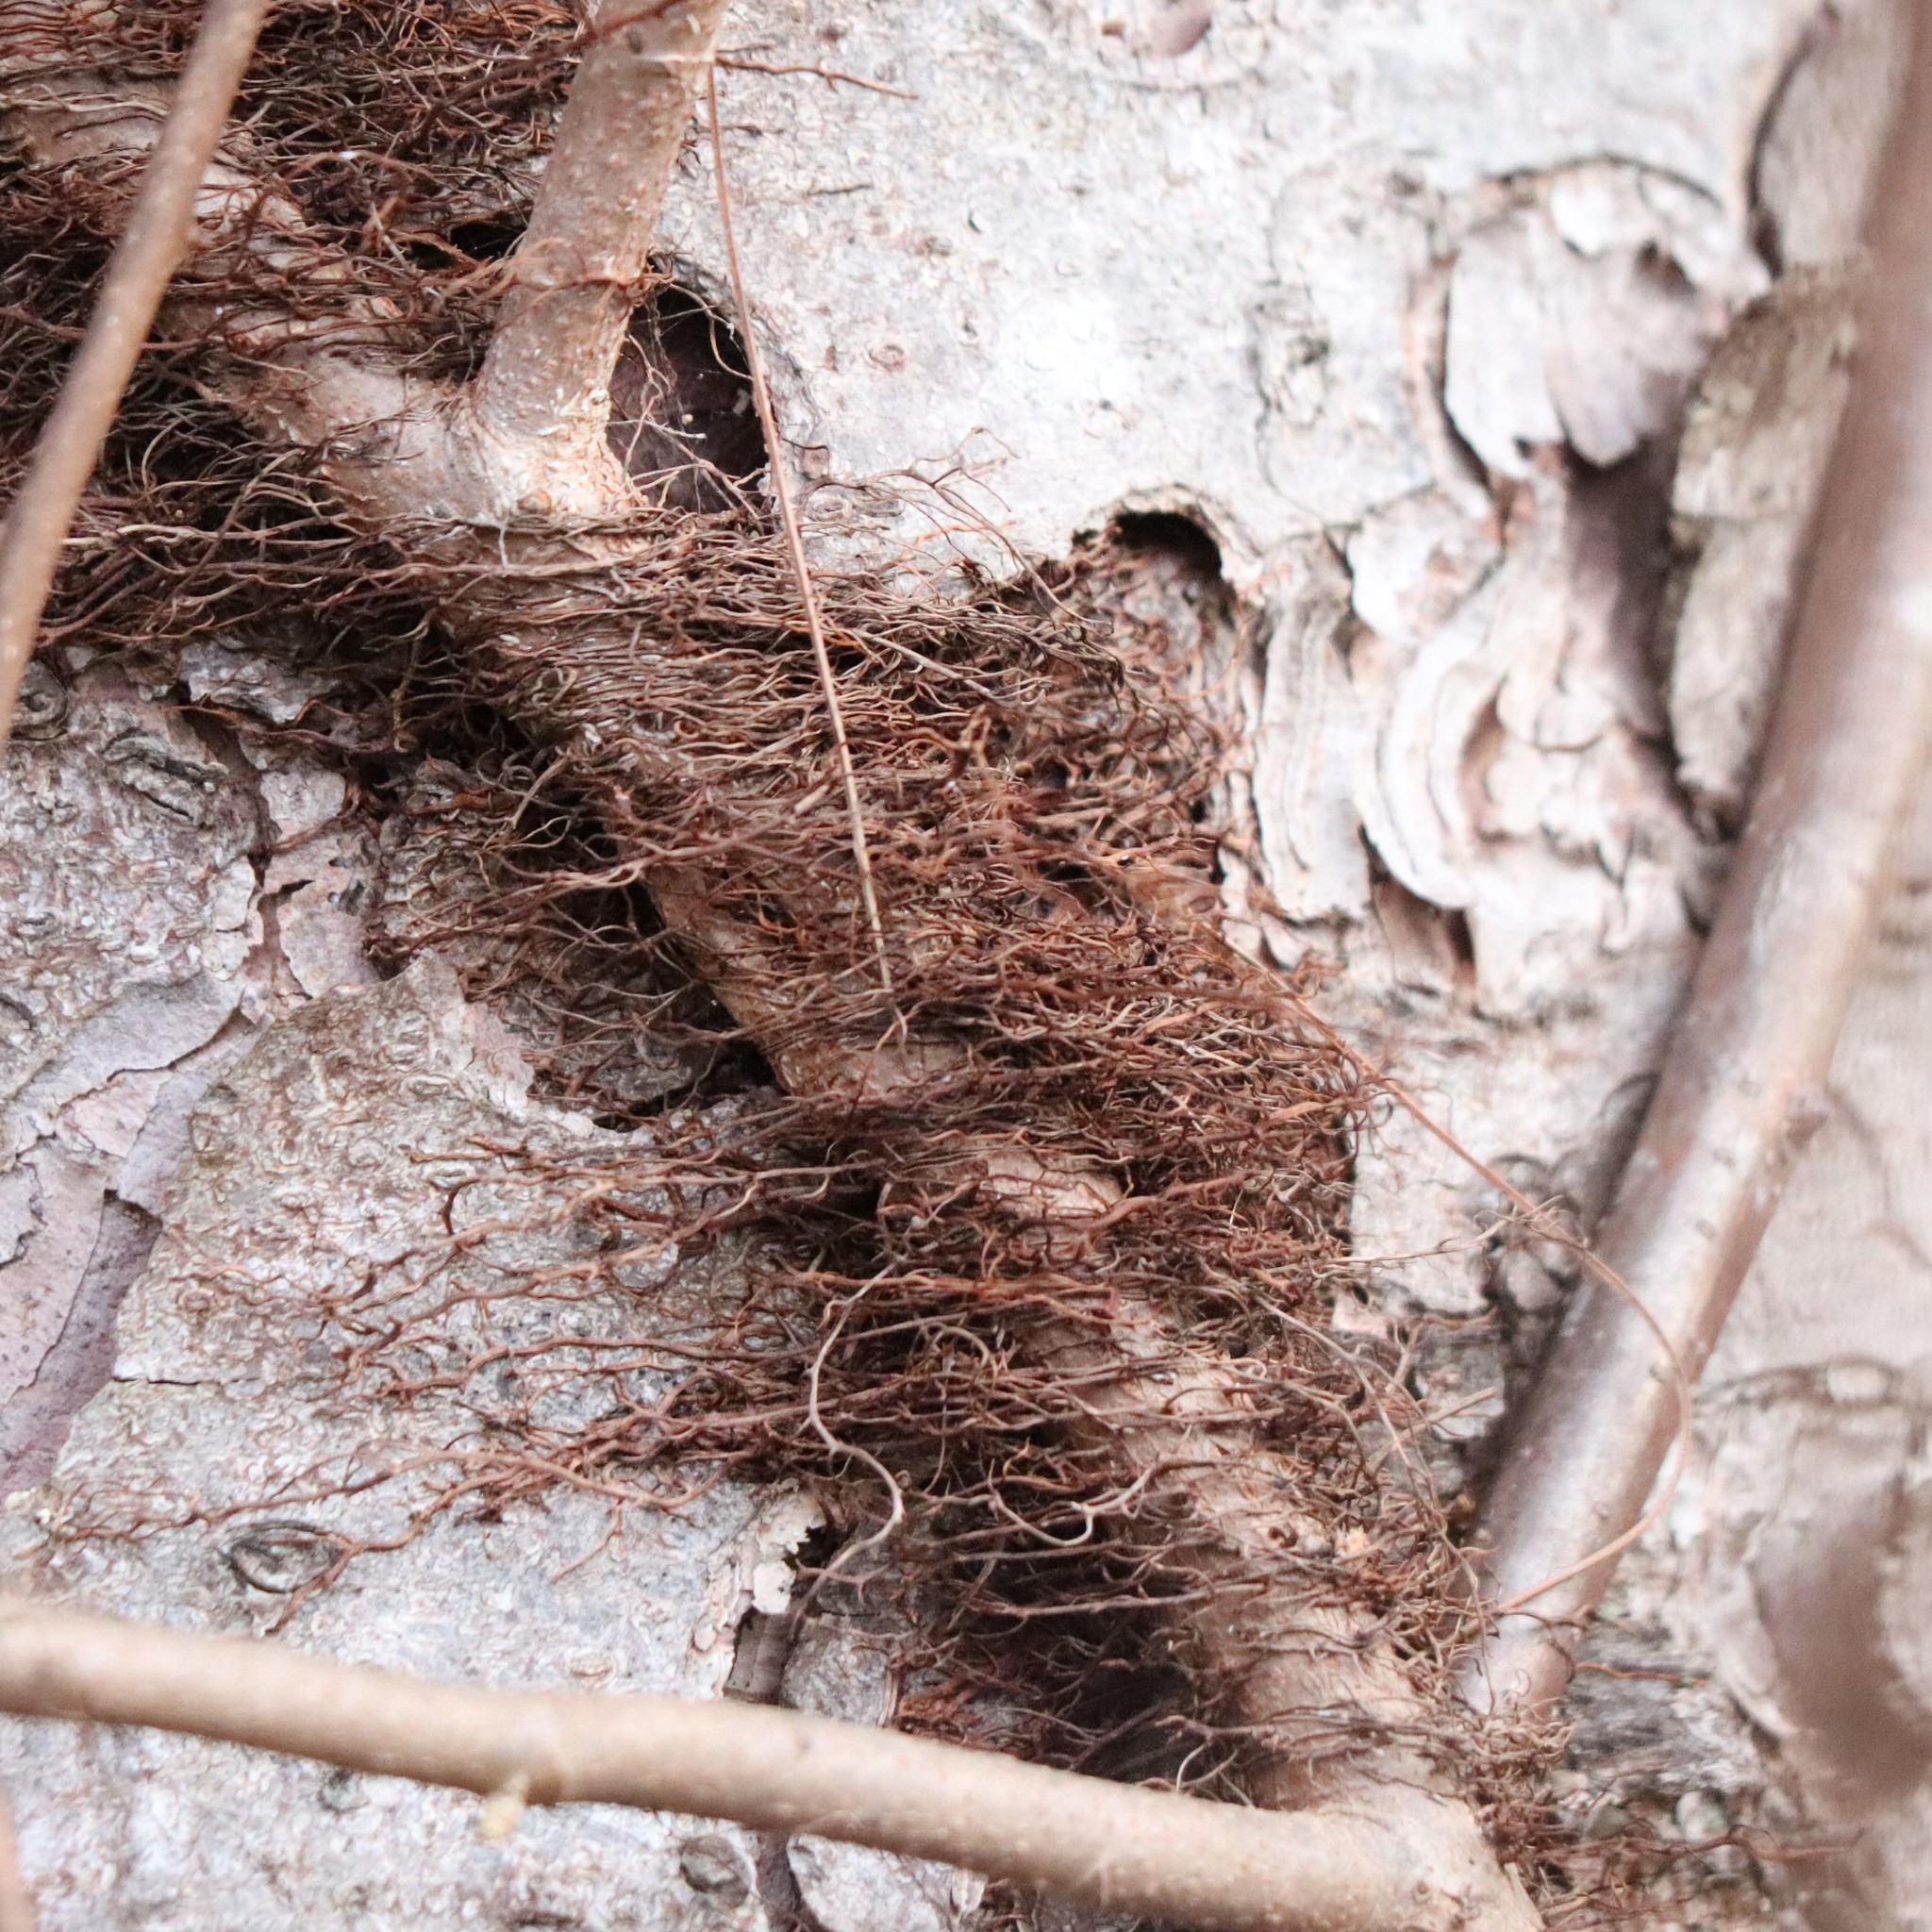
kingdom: Plantae
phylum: Tracheophyta
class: Magnoliopsida
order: Sapindales
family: Anacardiaceae
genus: Toxicodendron
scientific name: Toxicodendron radicans
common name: Poison ivy
